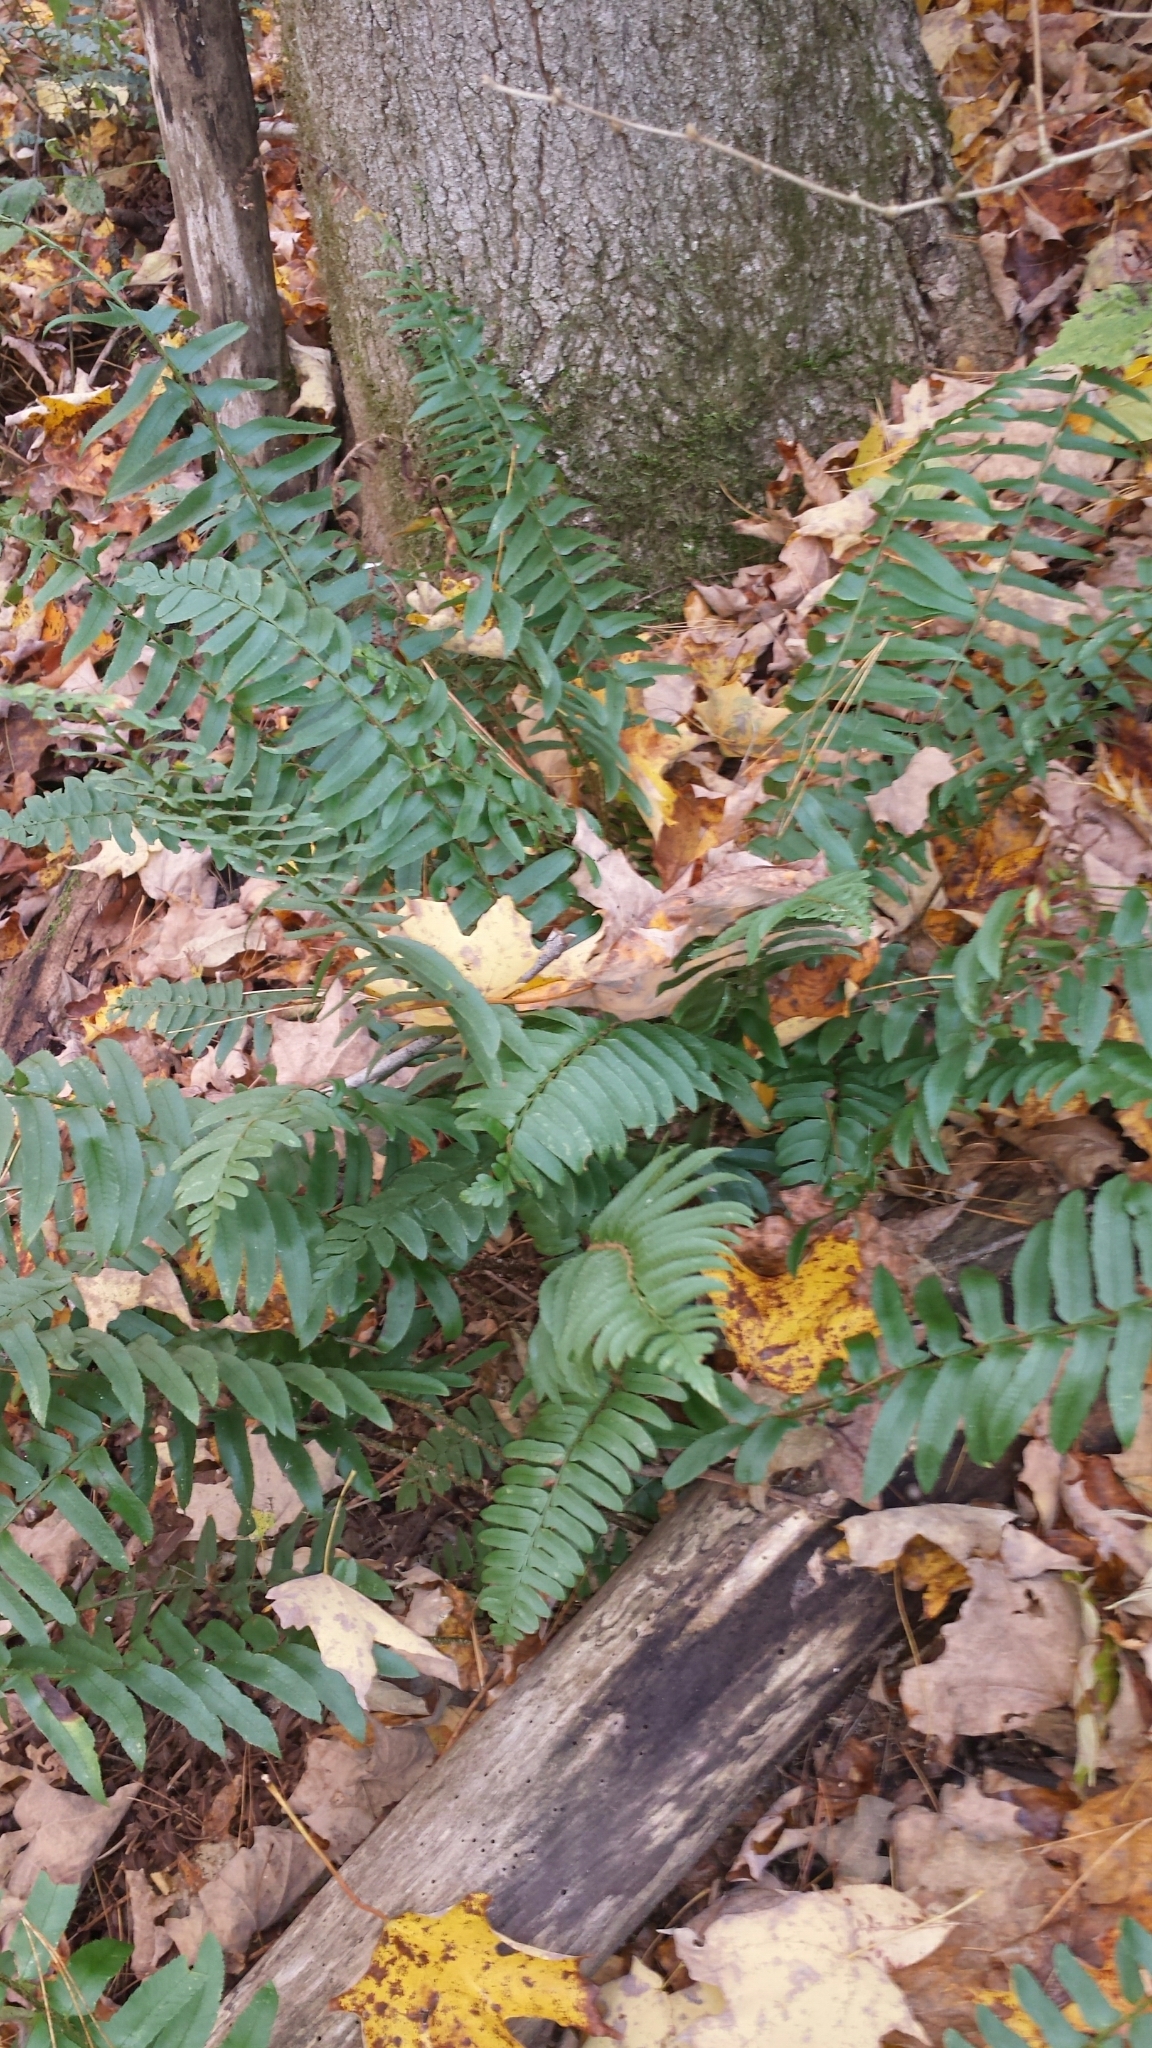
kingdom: Plantae
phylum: Tracheophyta
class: Polypodiopsida
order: Polypodiales
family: Dryopteridaceae
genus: Polystichum
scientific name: Polystichum acrostichoides
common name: Christmas fern
